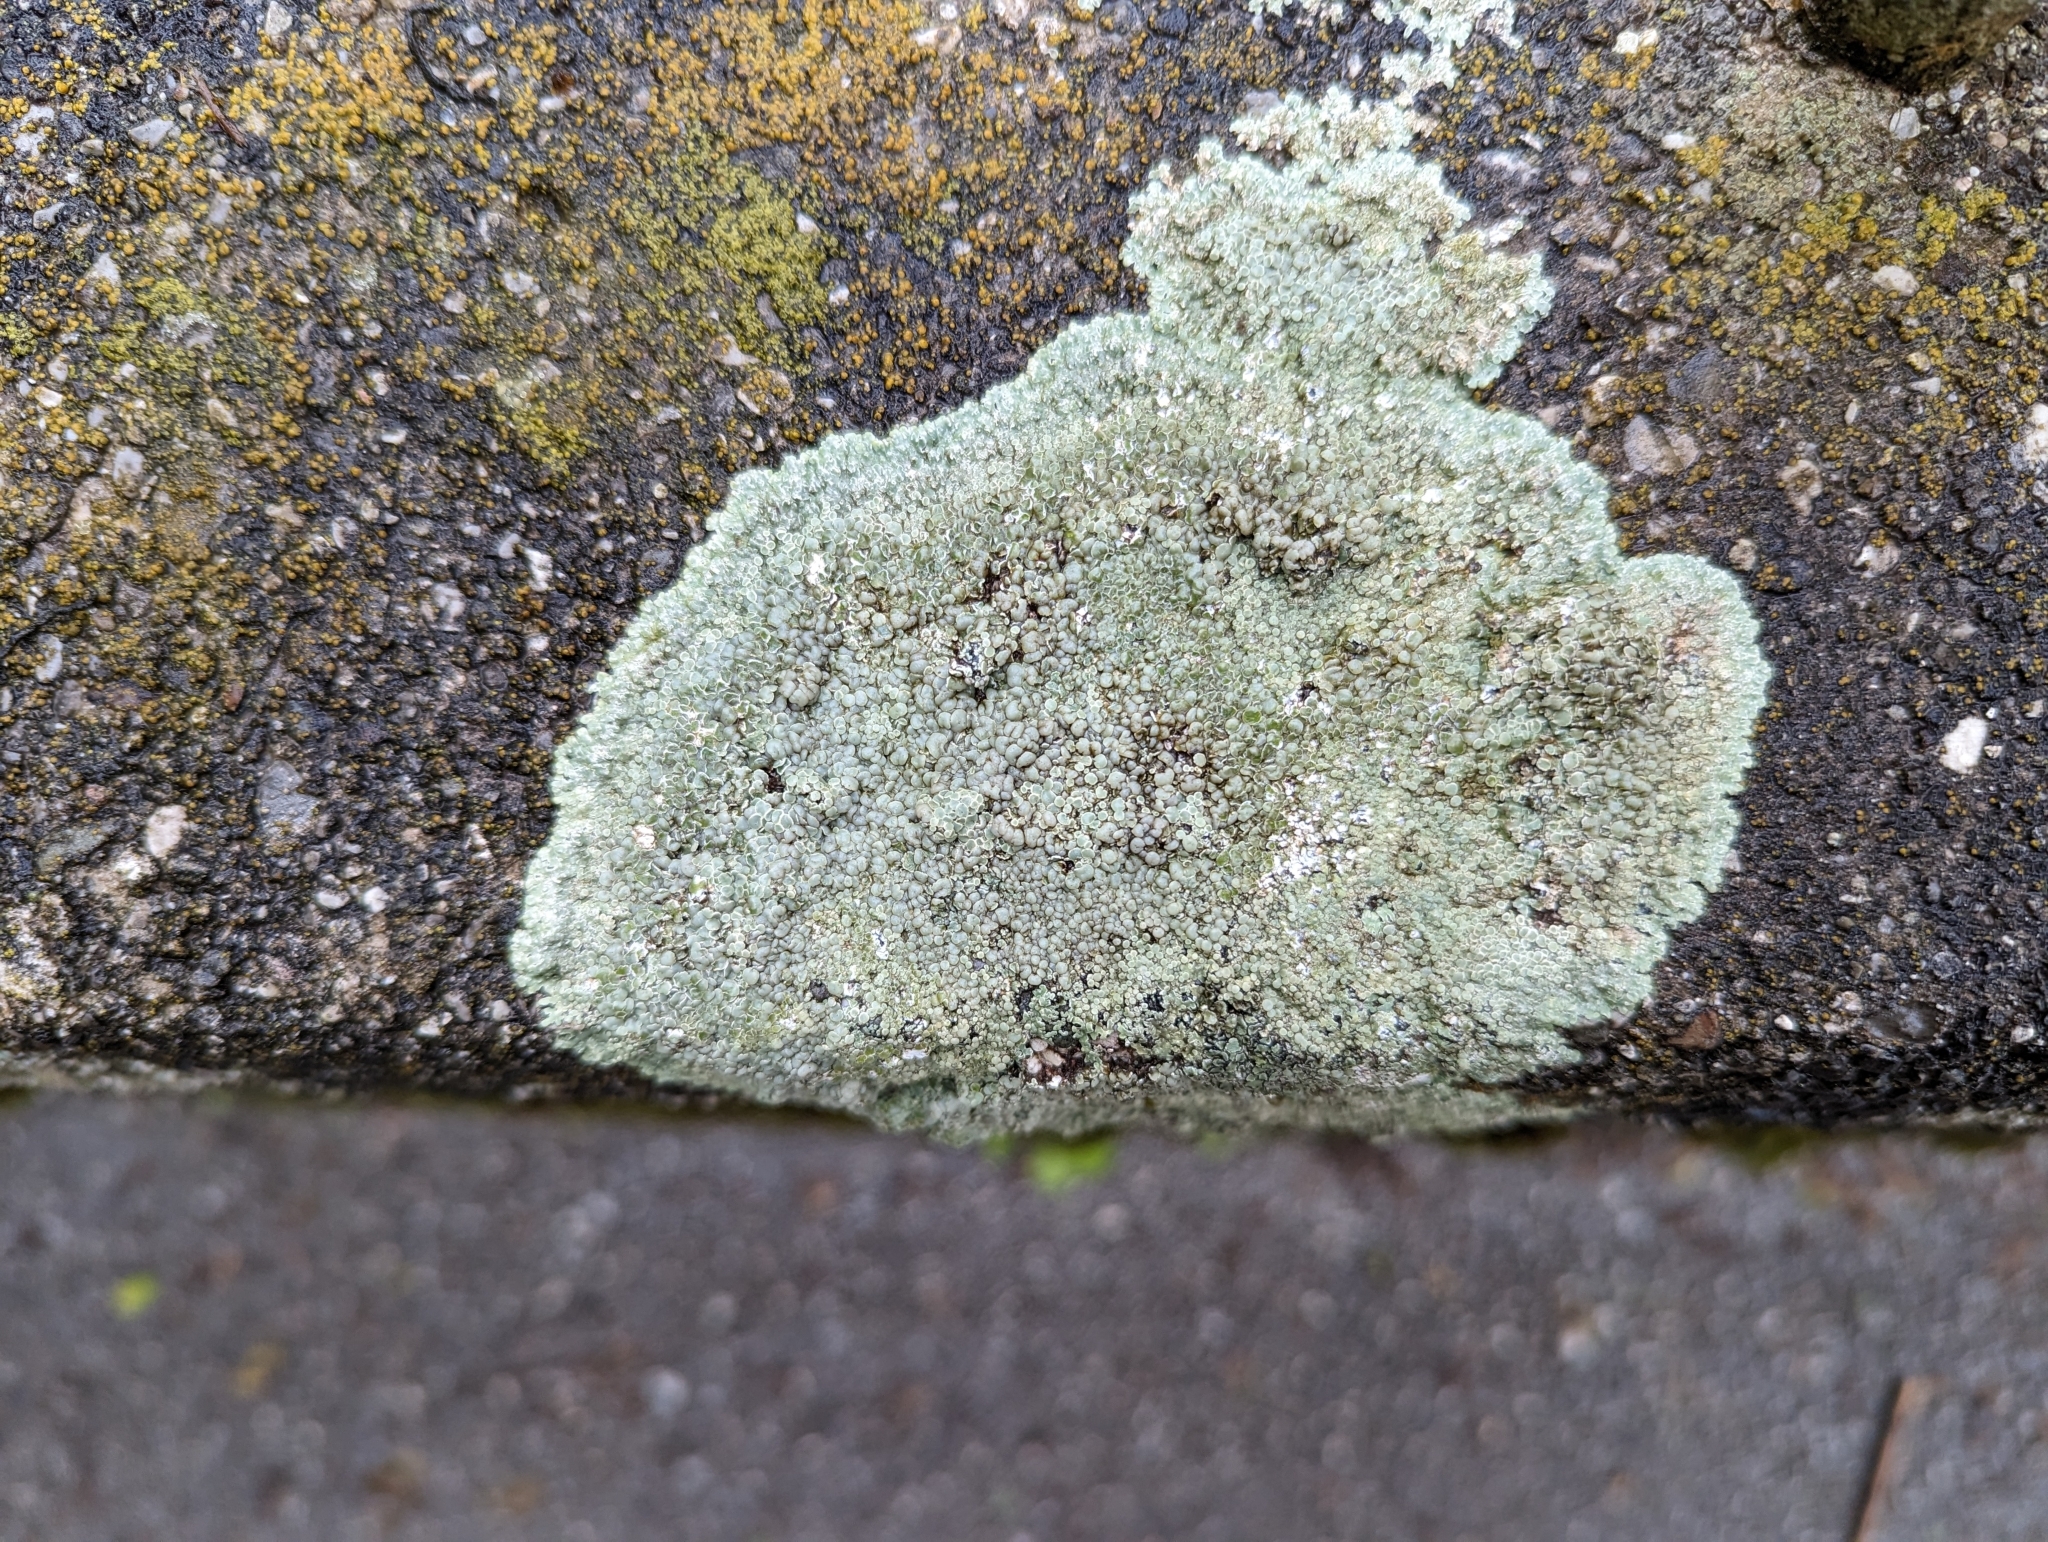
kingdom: Fungi
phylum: Ascomycota
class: Lecanoromycetes
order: Lecanorales
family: Lecanoraceae
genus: Protoparmeliopsis
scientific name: Protoparmeliopsis muralis
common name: Stonewall rim lichen
